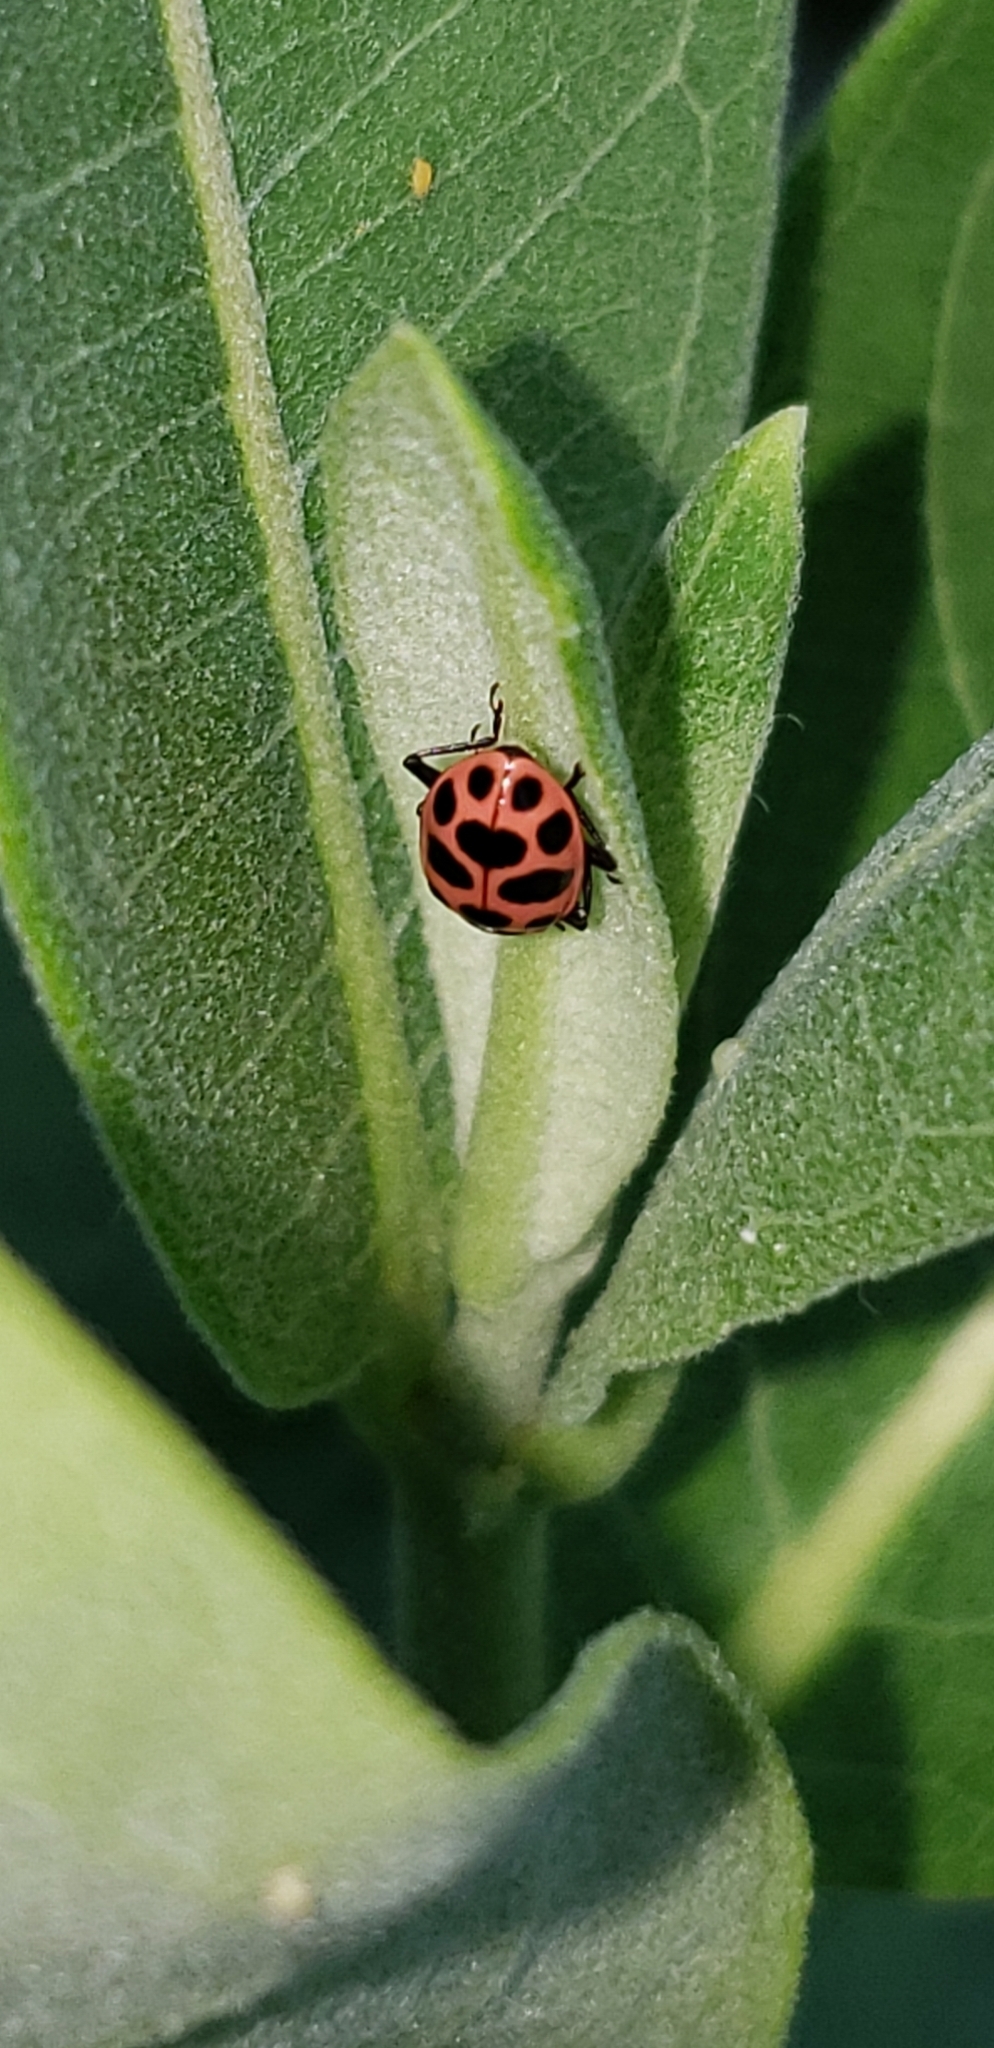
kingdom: Animalia
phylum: Arthropoda
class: Insecta
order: Coleoptera
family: Coccinellidae
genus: Coleomegilla
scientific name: Coleomegilla maculata
